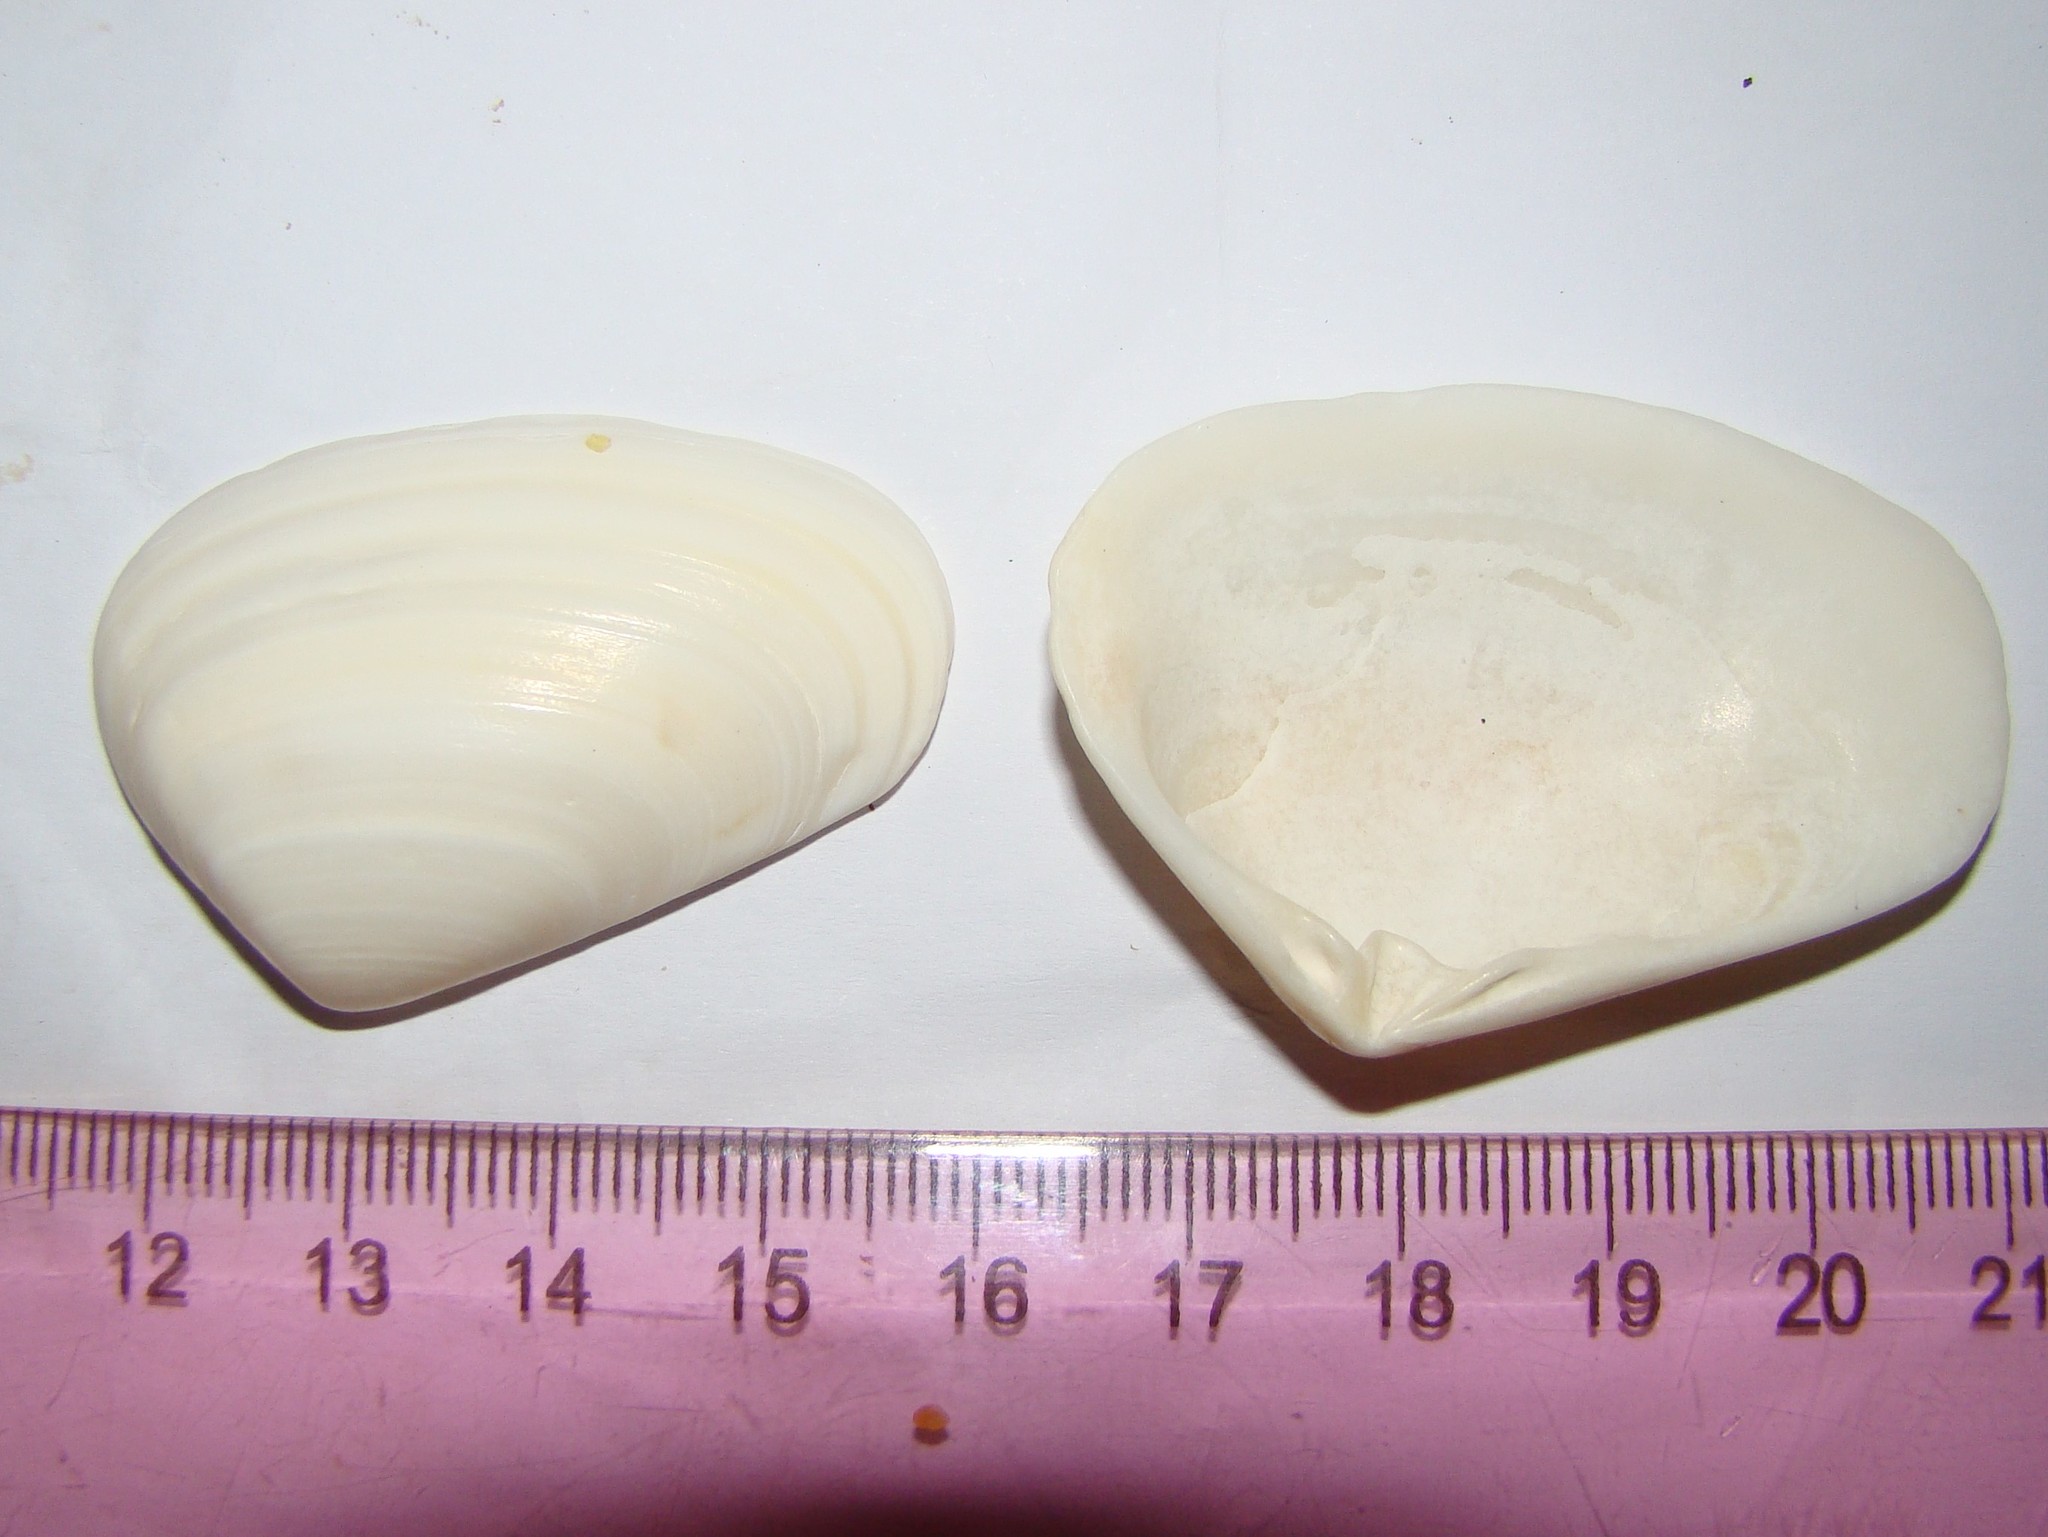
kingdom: Animalia
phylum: Mollusca
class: Bivalvia
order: Venerida
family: Mesodesmatidae
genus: Paphies
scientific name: Paphies donacina
